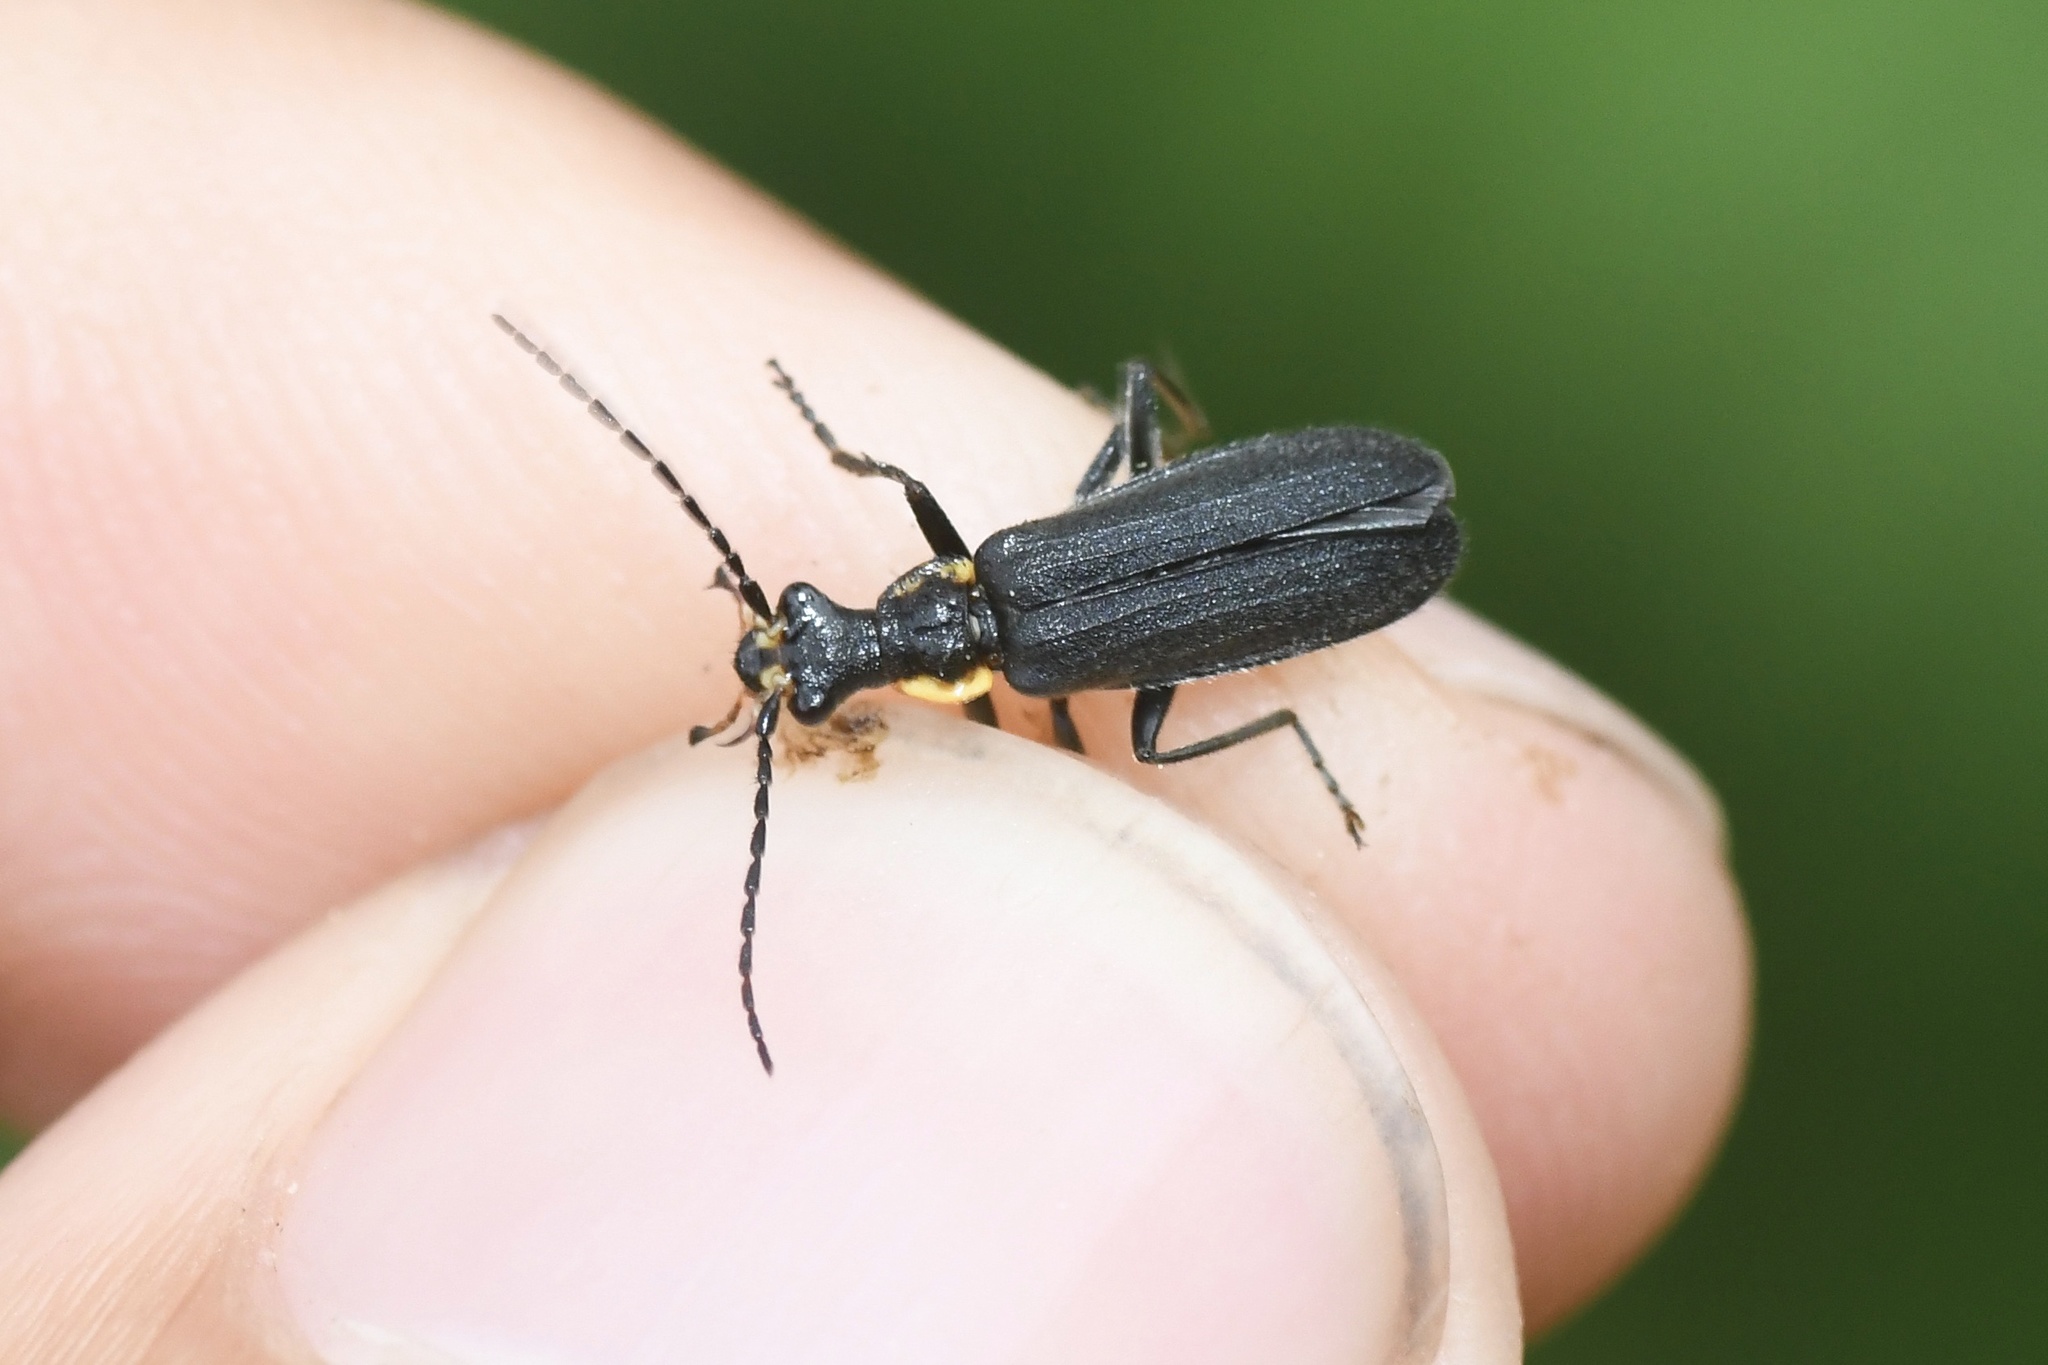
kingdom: Animalia
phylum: Arthropoda
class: Insecta
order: Coleoptera
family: Cantharidae
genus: Podabrus
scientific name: Podabrus rugosulus
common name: Wrinkled soldier beetle
